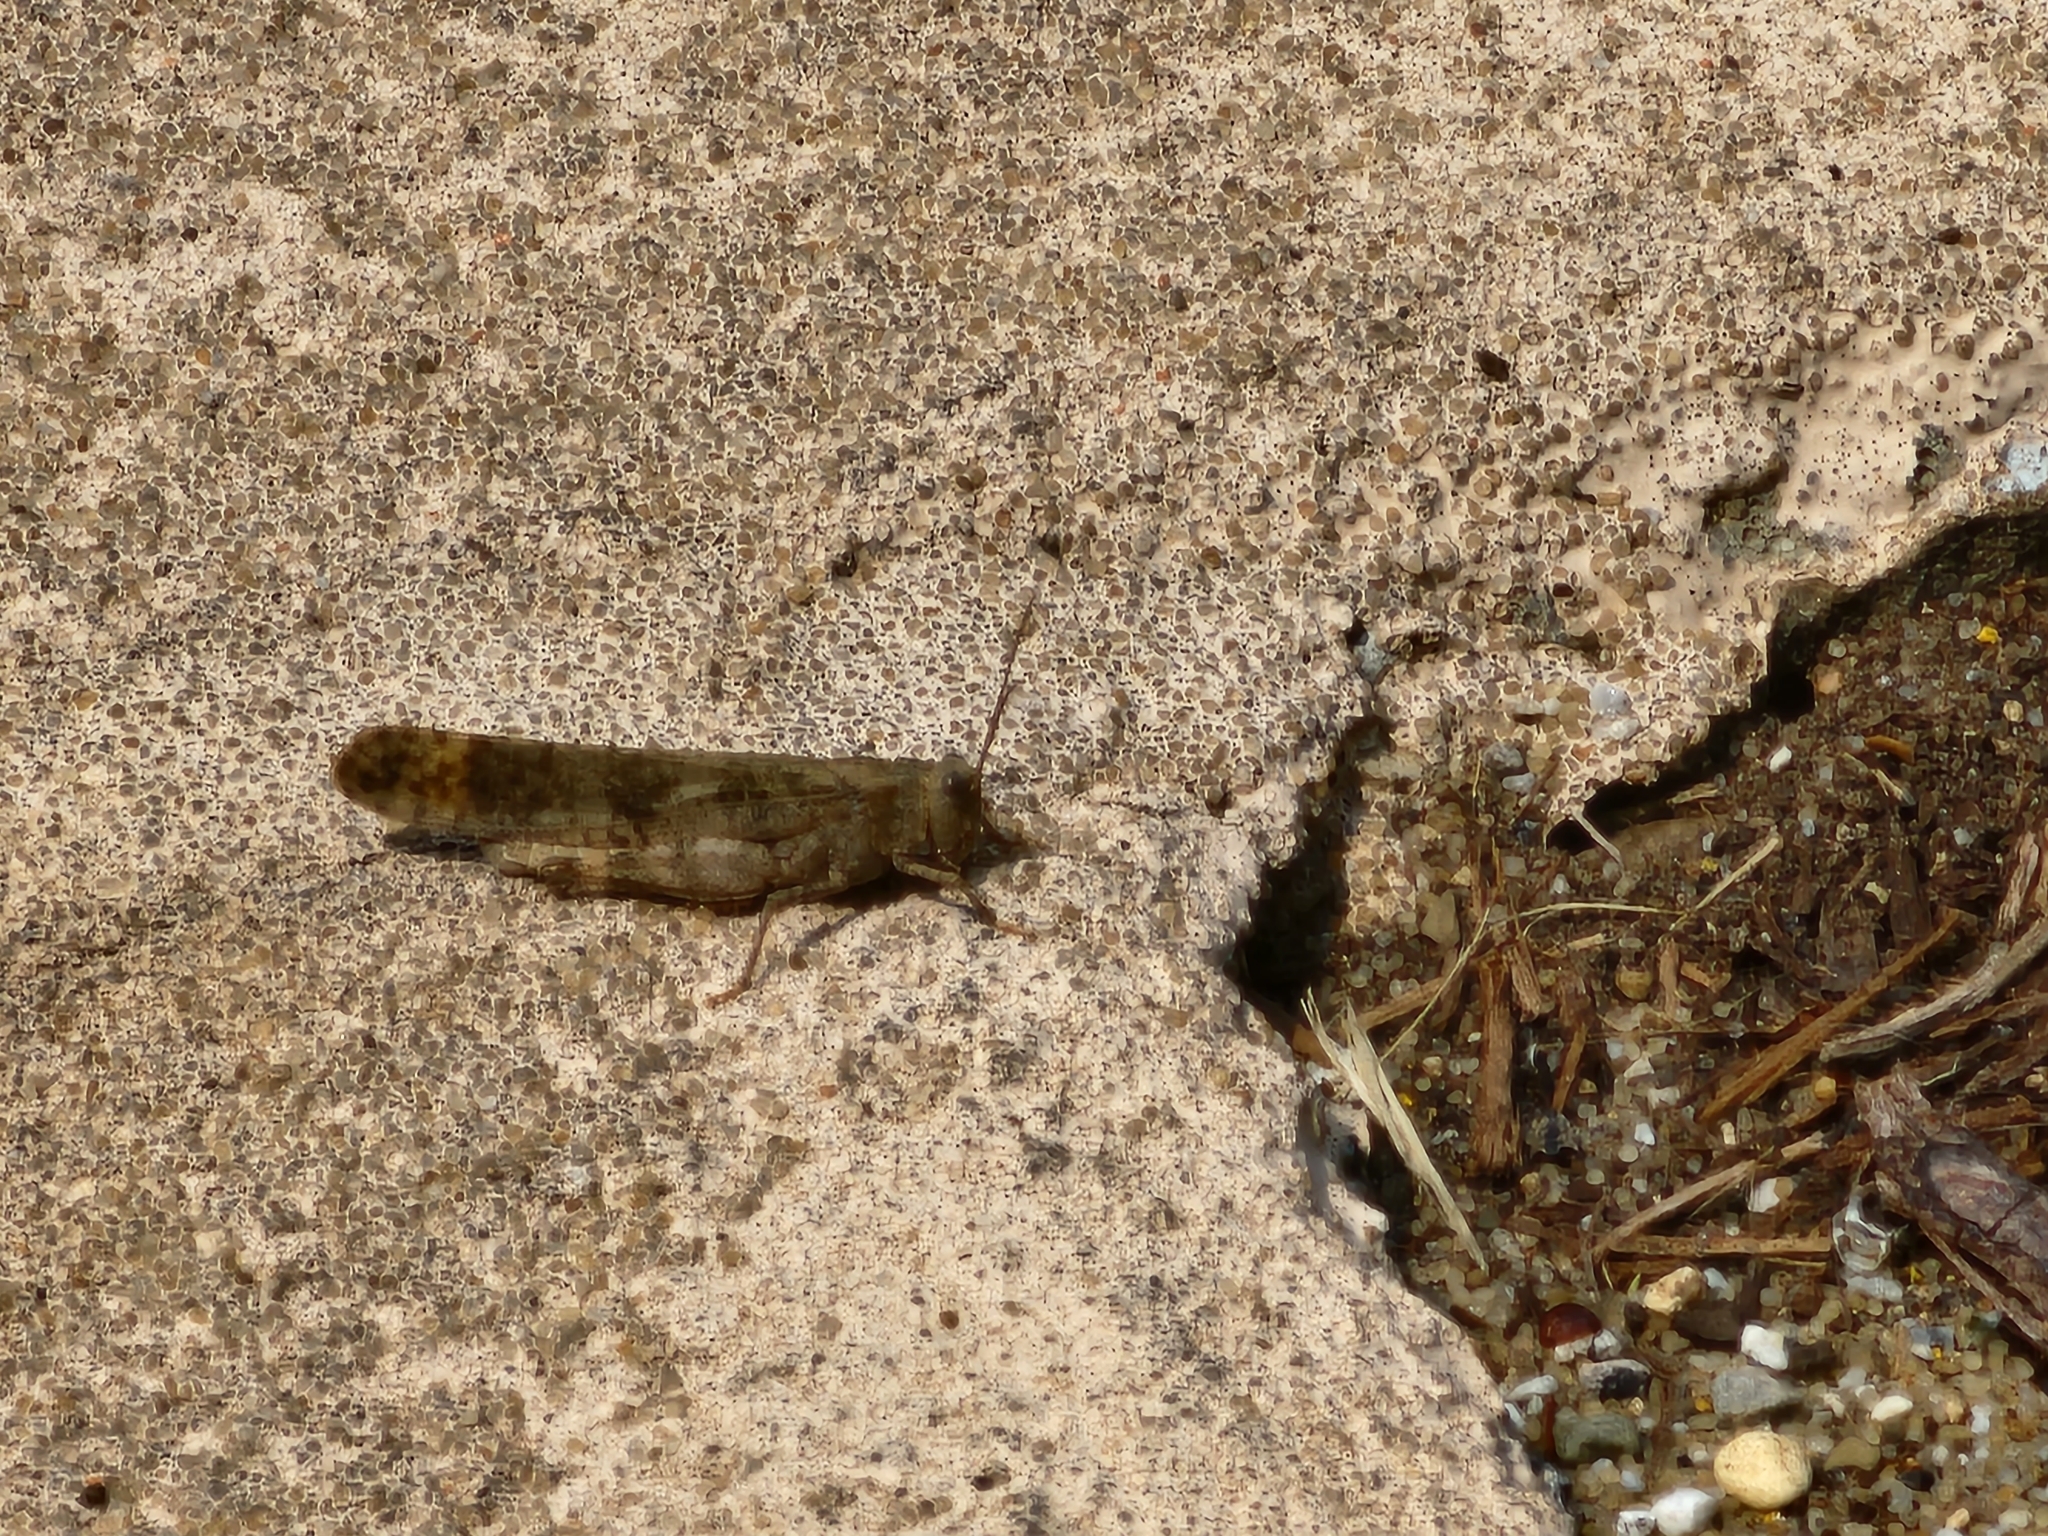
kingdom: Animalia
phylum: Arthropoda
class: Insecta
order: Orthoptera
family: Acrididae
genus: Dissosteira
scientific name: Dissosteira carolina
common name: Carolina grasshopper
